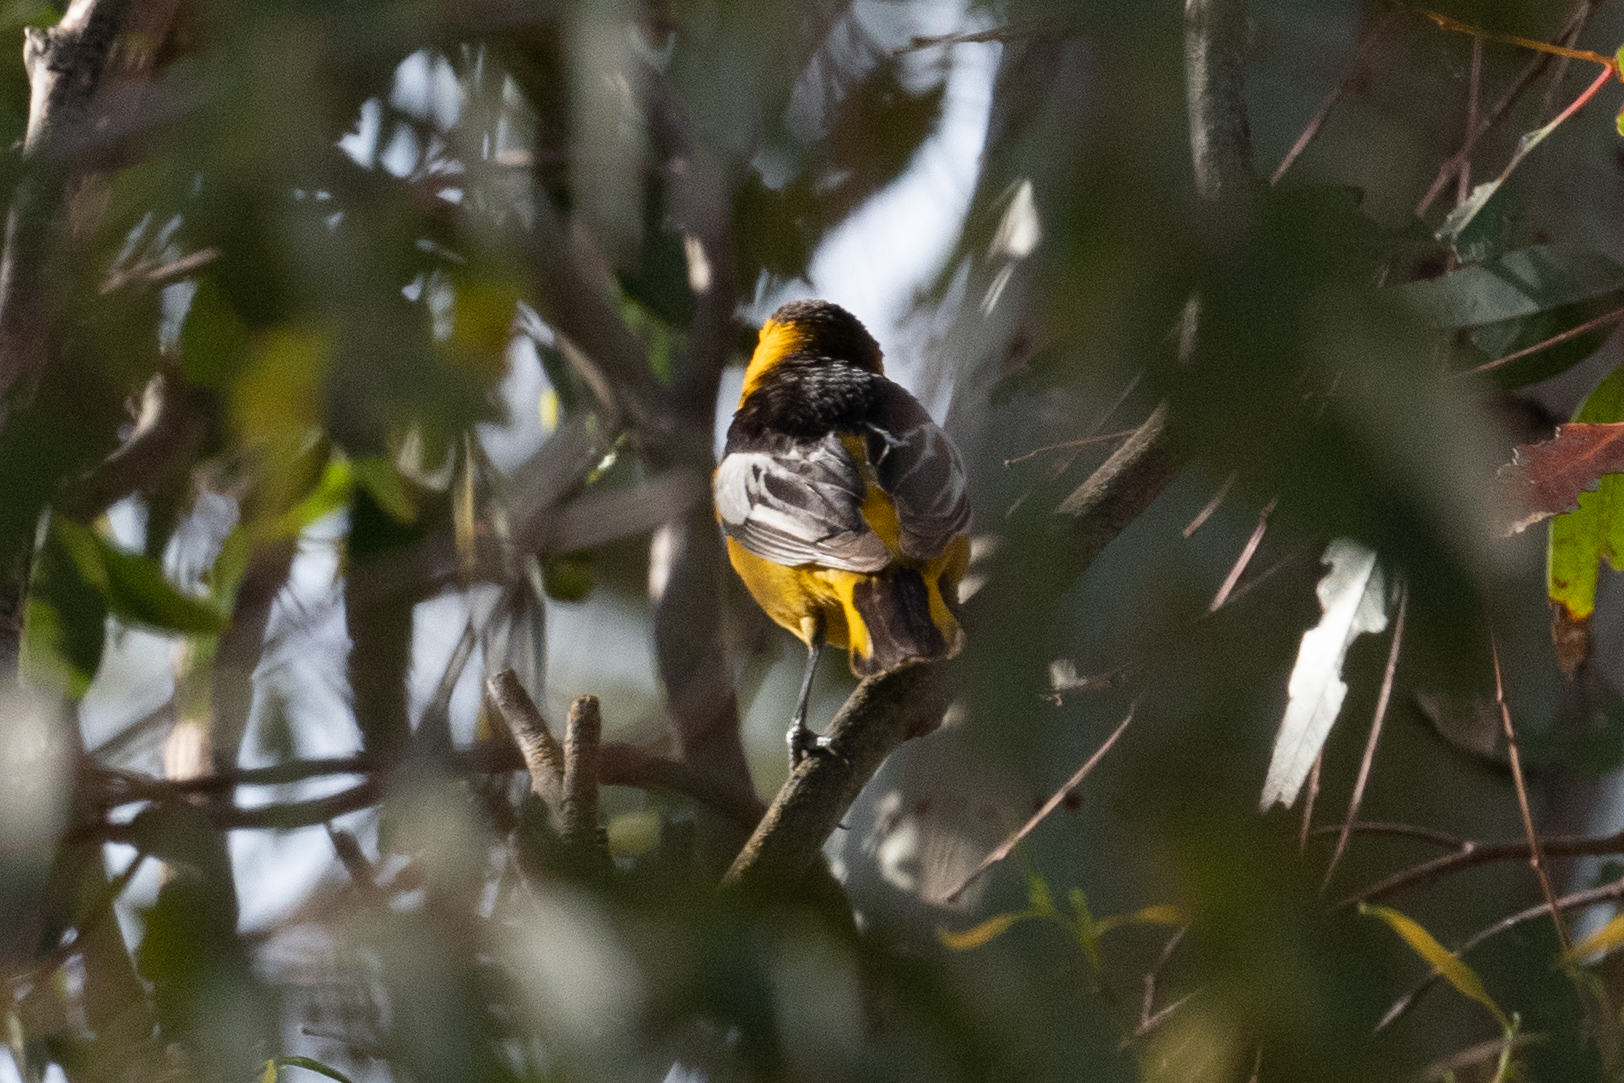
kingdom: Animalia
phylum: Chordata
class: Aves
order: Passeriformes
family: Icteridae
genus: Icterus
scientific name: Icterus bullockii
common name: Bullock's oriole
